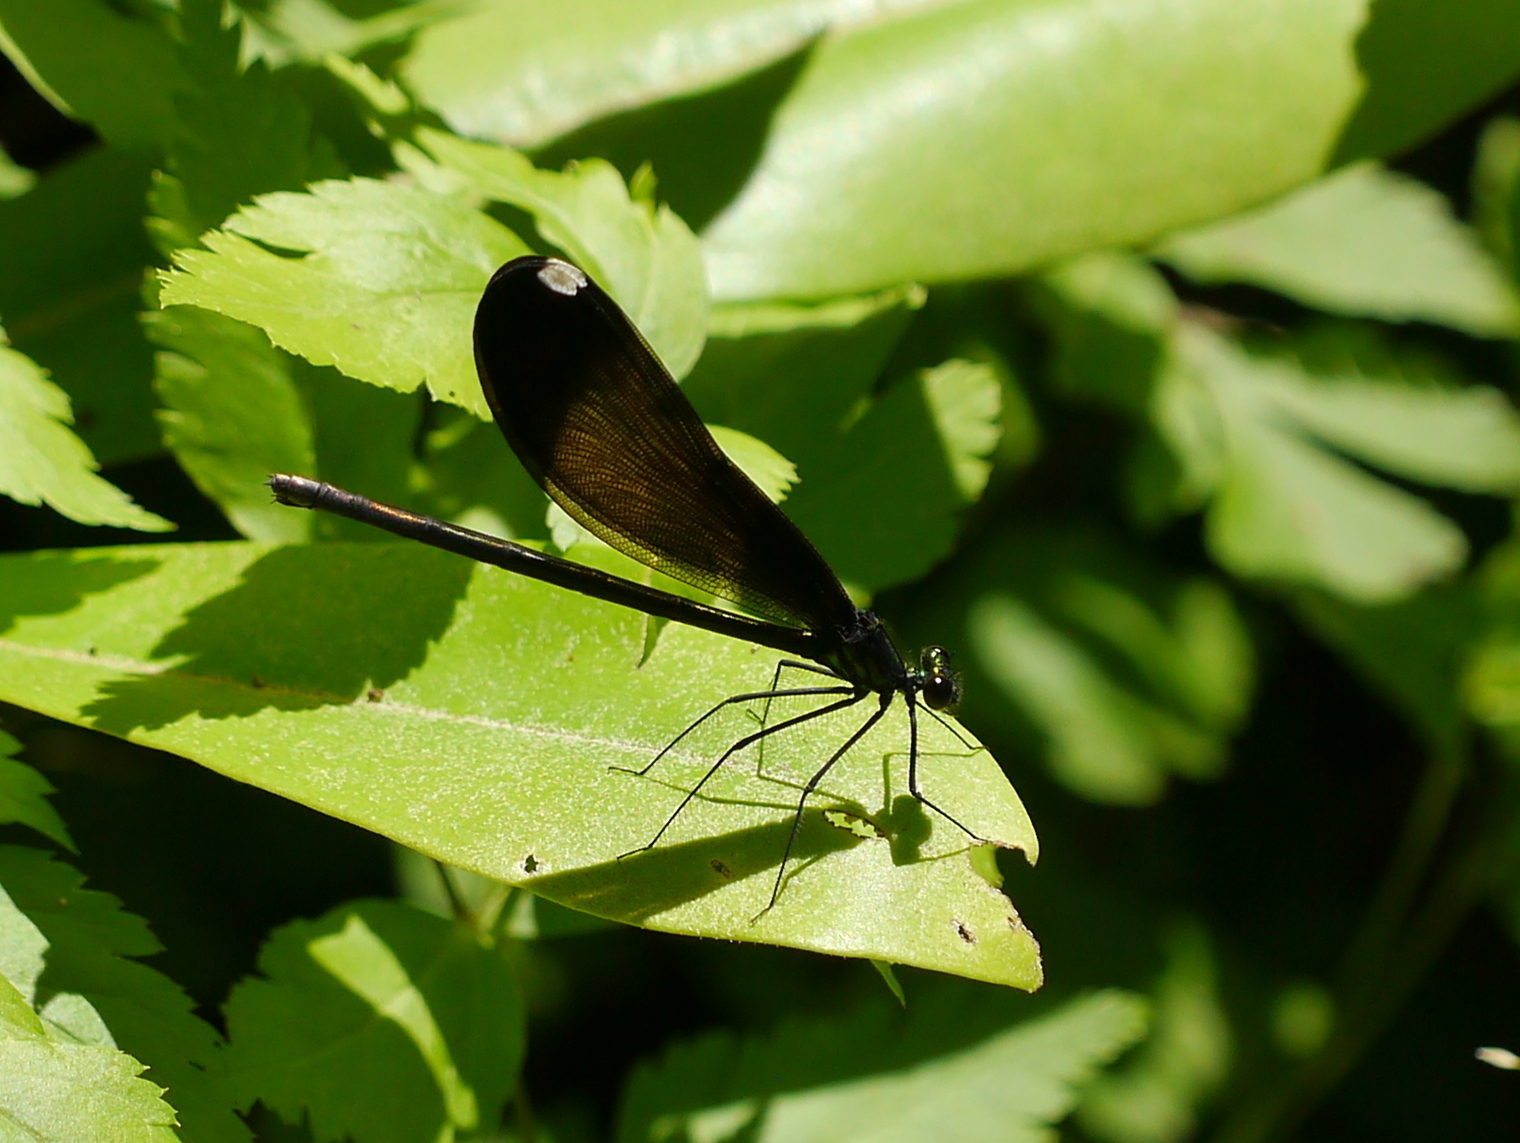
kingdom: Animalia
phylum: Arthropoda
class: Insecta
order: Odonata
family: Calopterygidae
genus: Calopteryx
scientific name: Calopteryx maculata
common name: Ebony jewelwing
